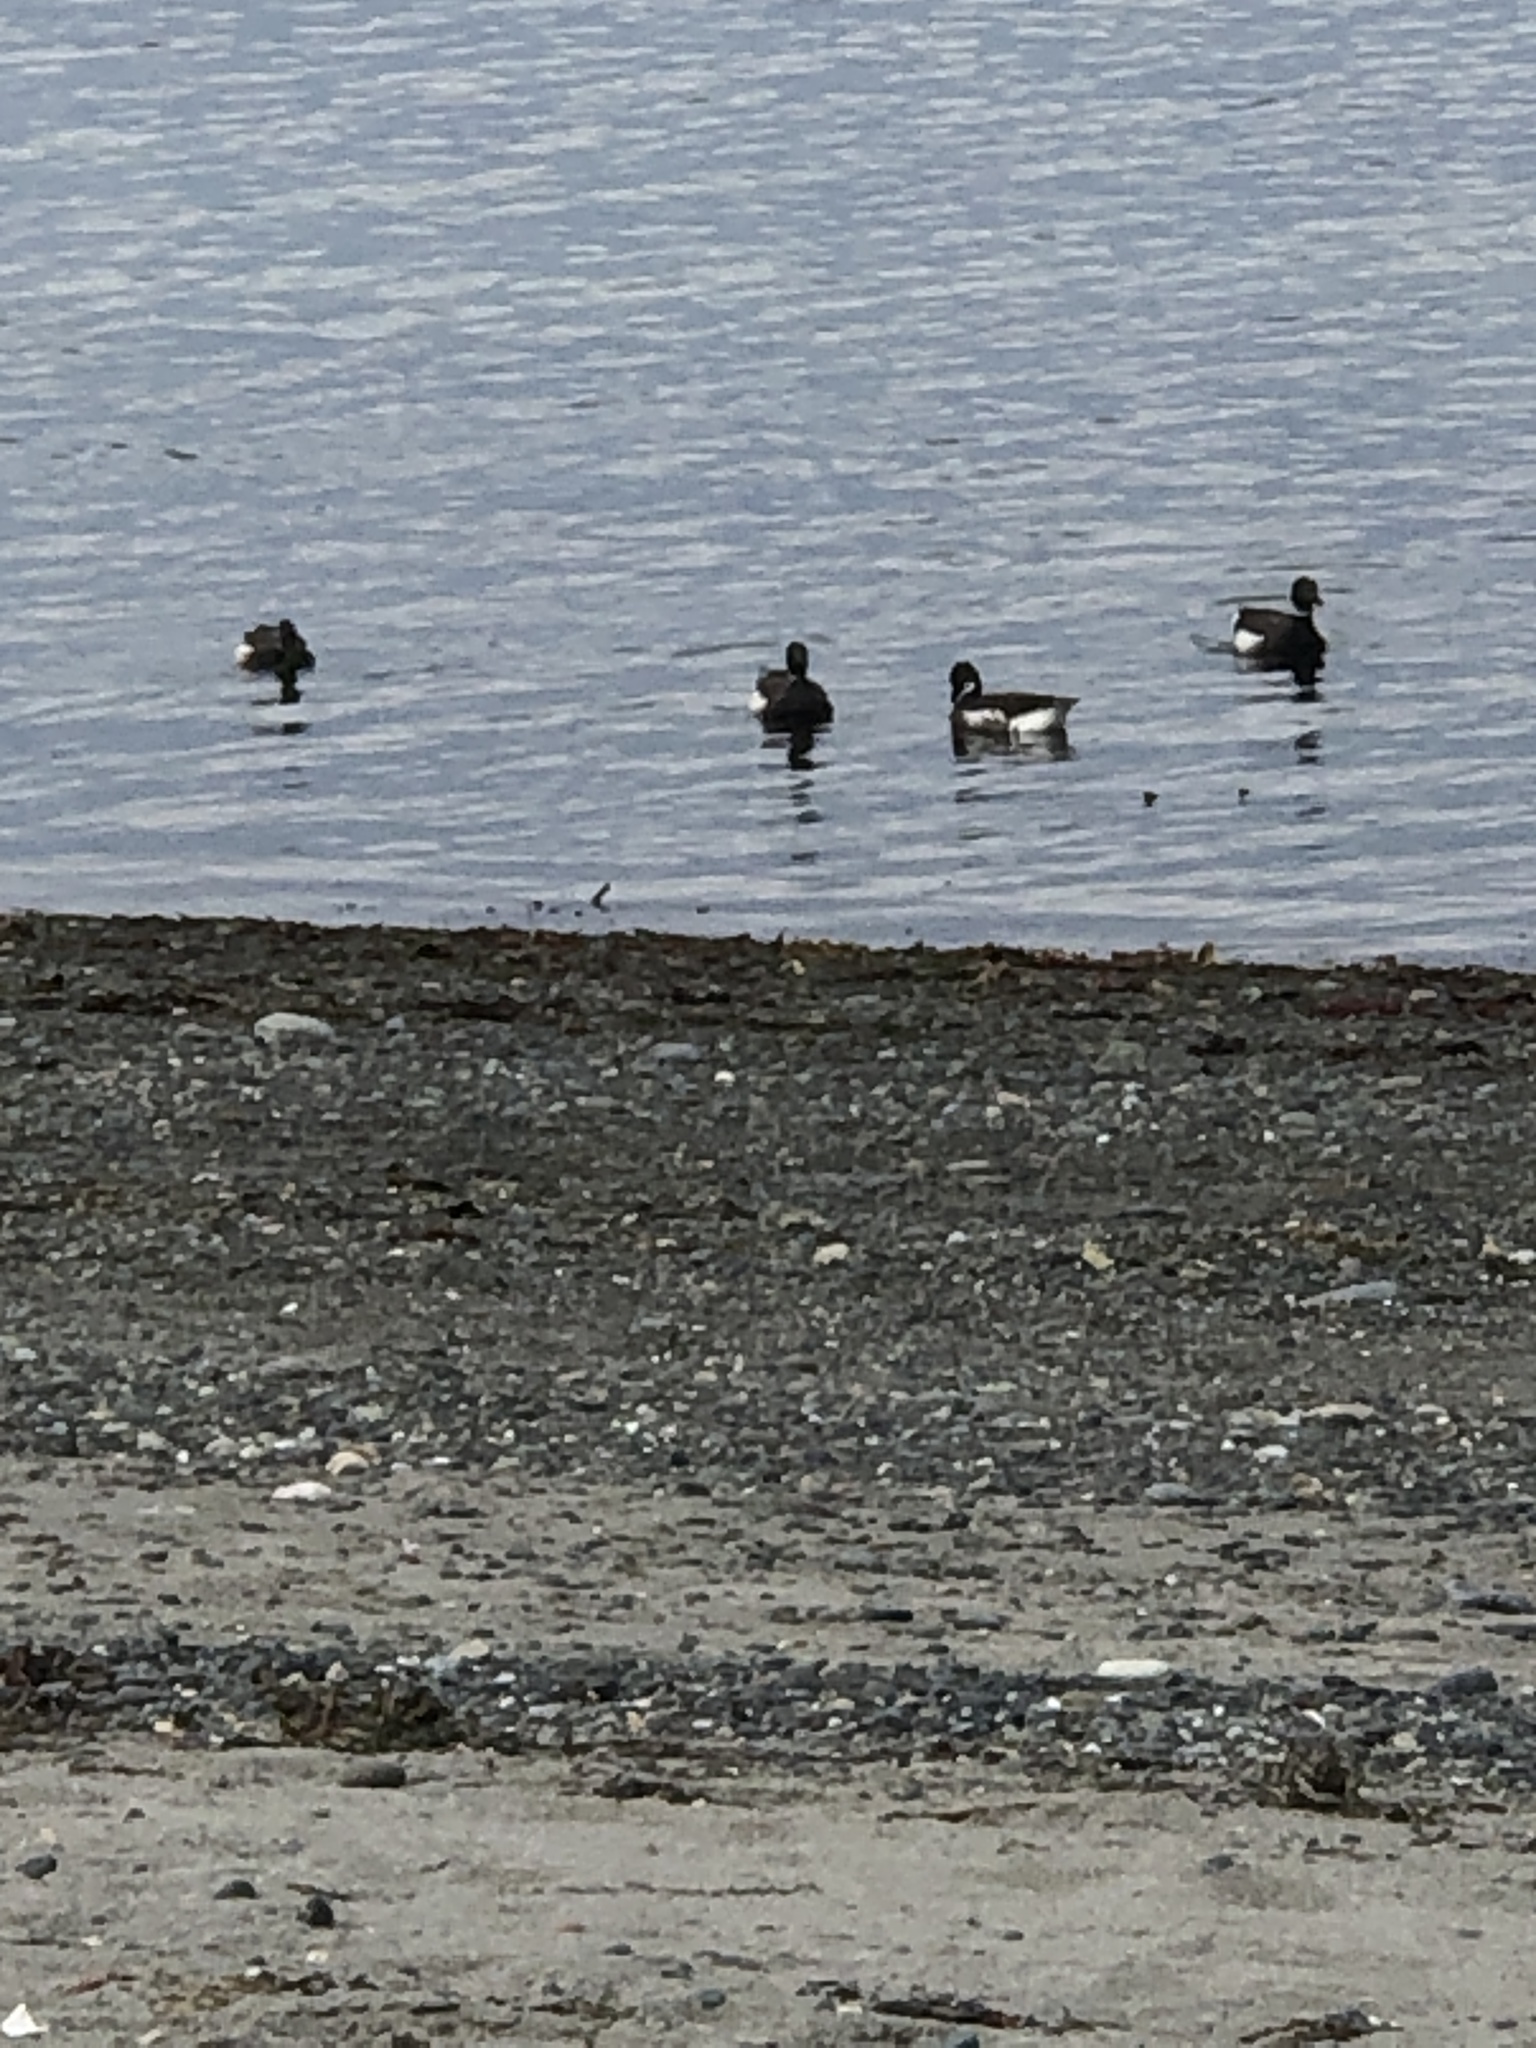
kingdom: Animalia
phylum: Chordata
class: Aves
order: Anseriformes
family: Anatidae
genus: Branta
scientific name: Branta bernicla
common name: Brant goose
